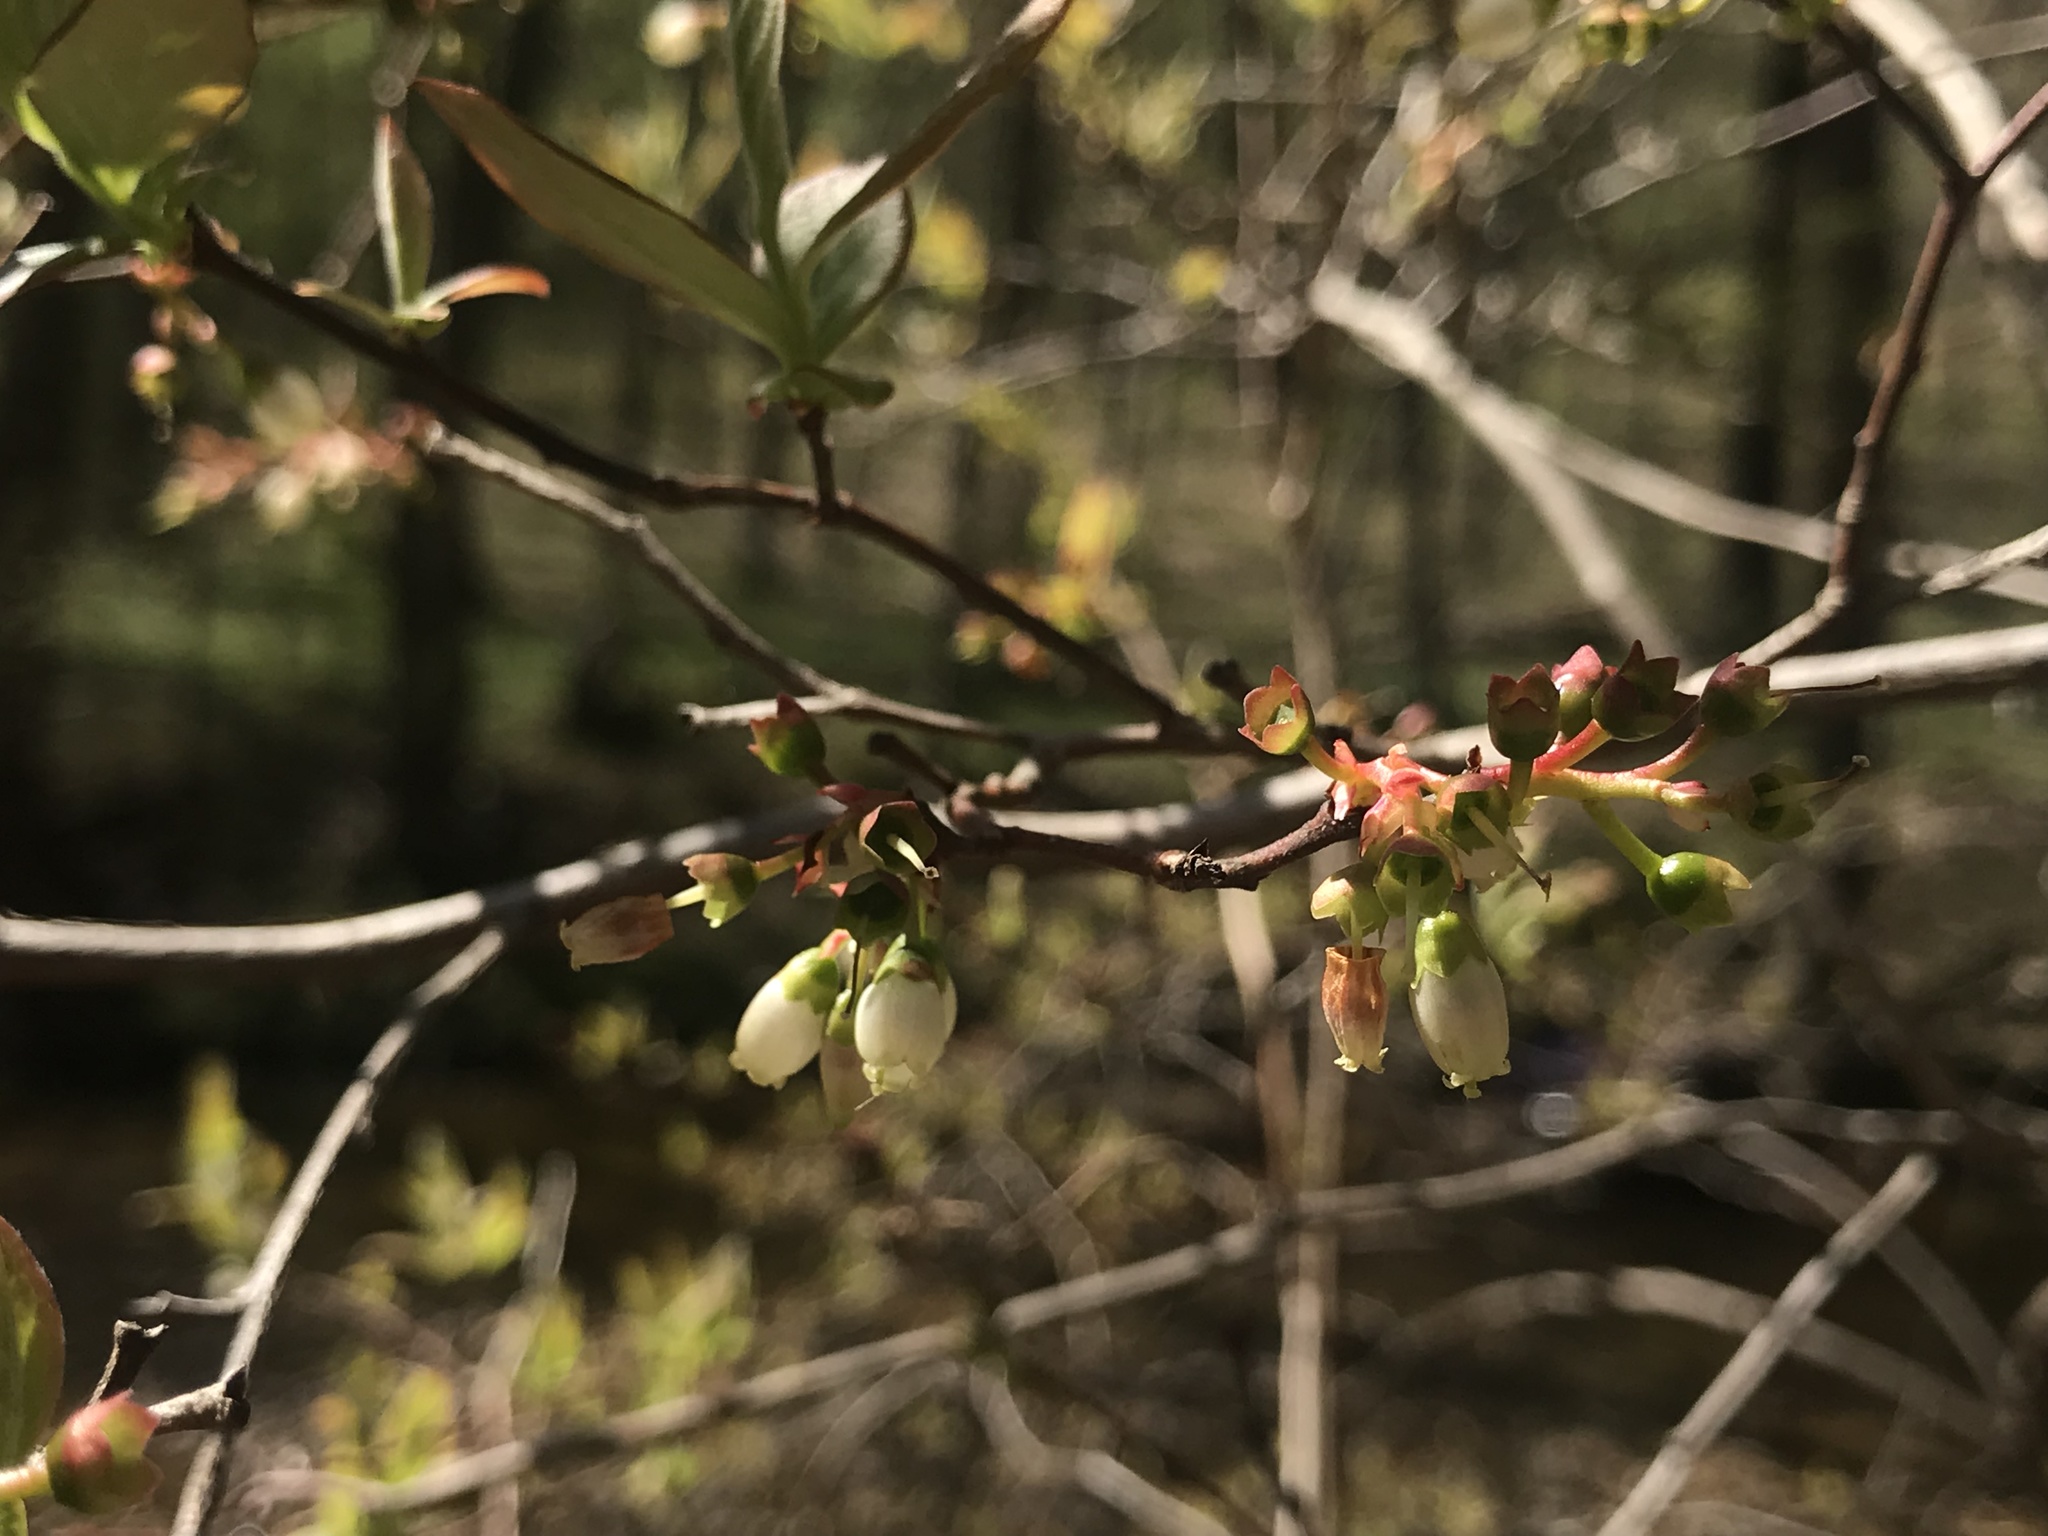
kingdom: Plantae
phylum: Tracheophyta
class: Magnoliopsida
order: Ericales
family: Ericaceae
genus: Vaccinium
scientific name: Vaccinium corymbosum
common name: Blueberry
